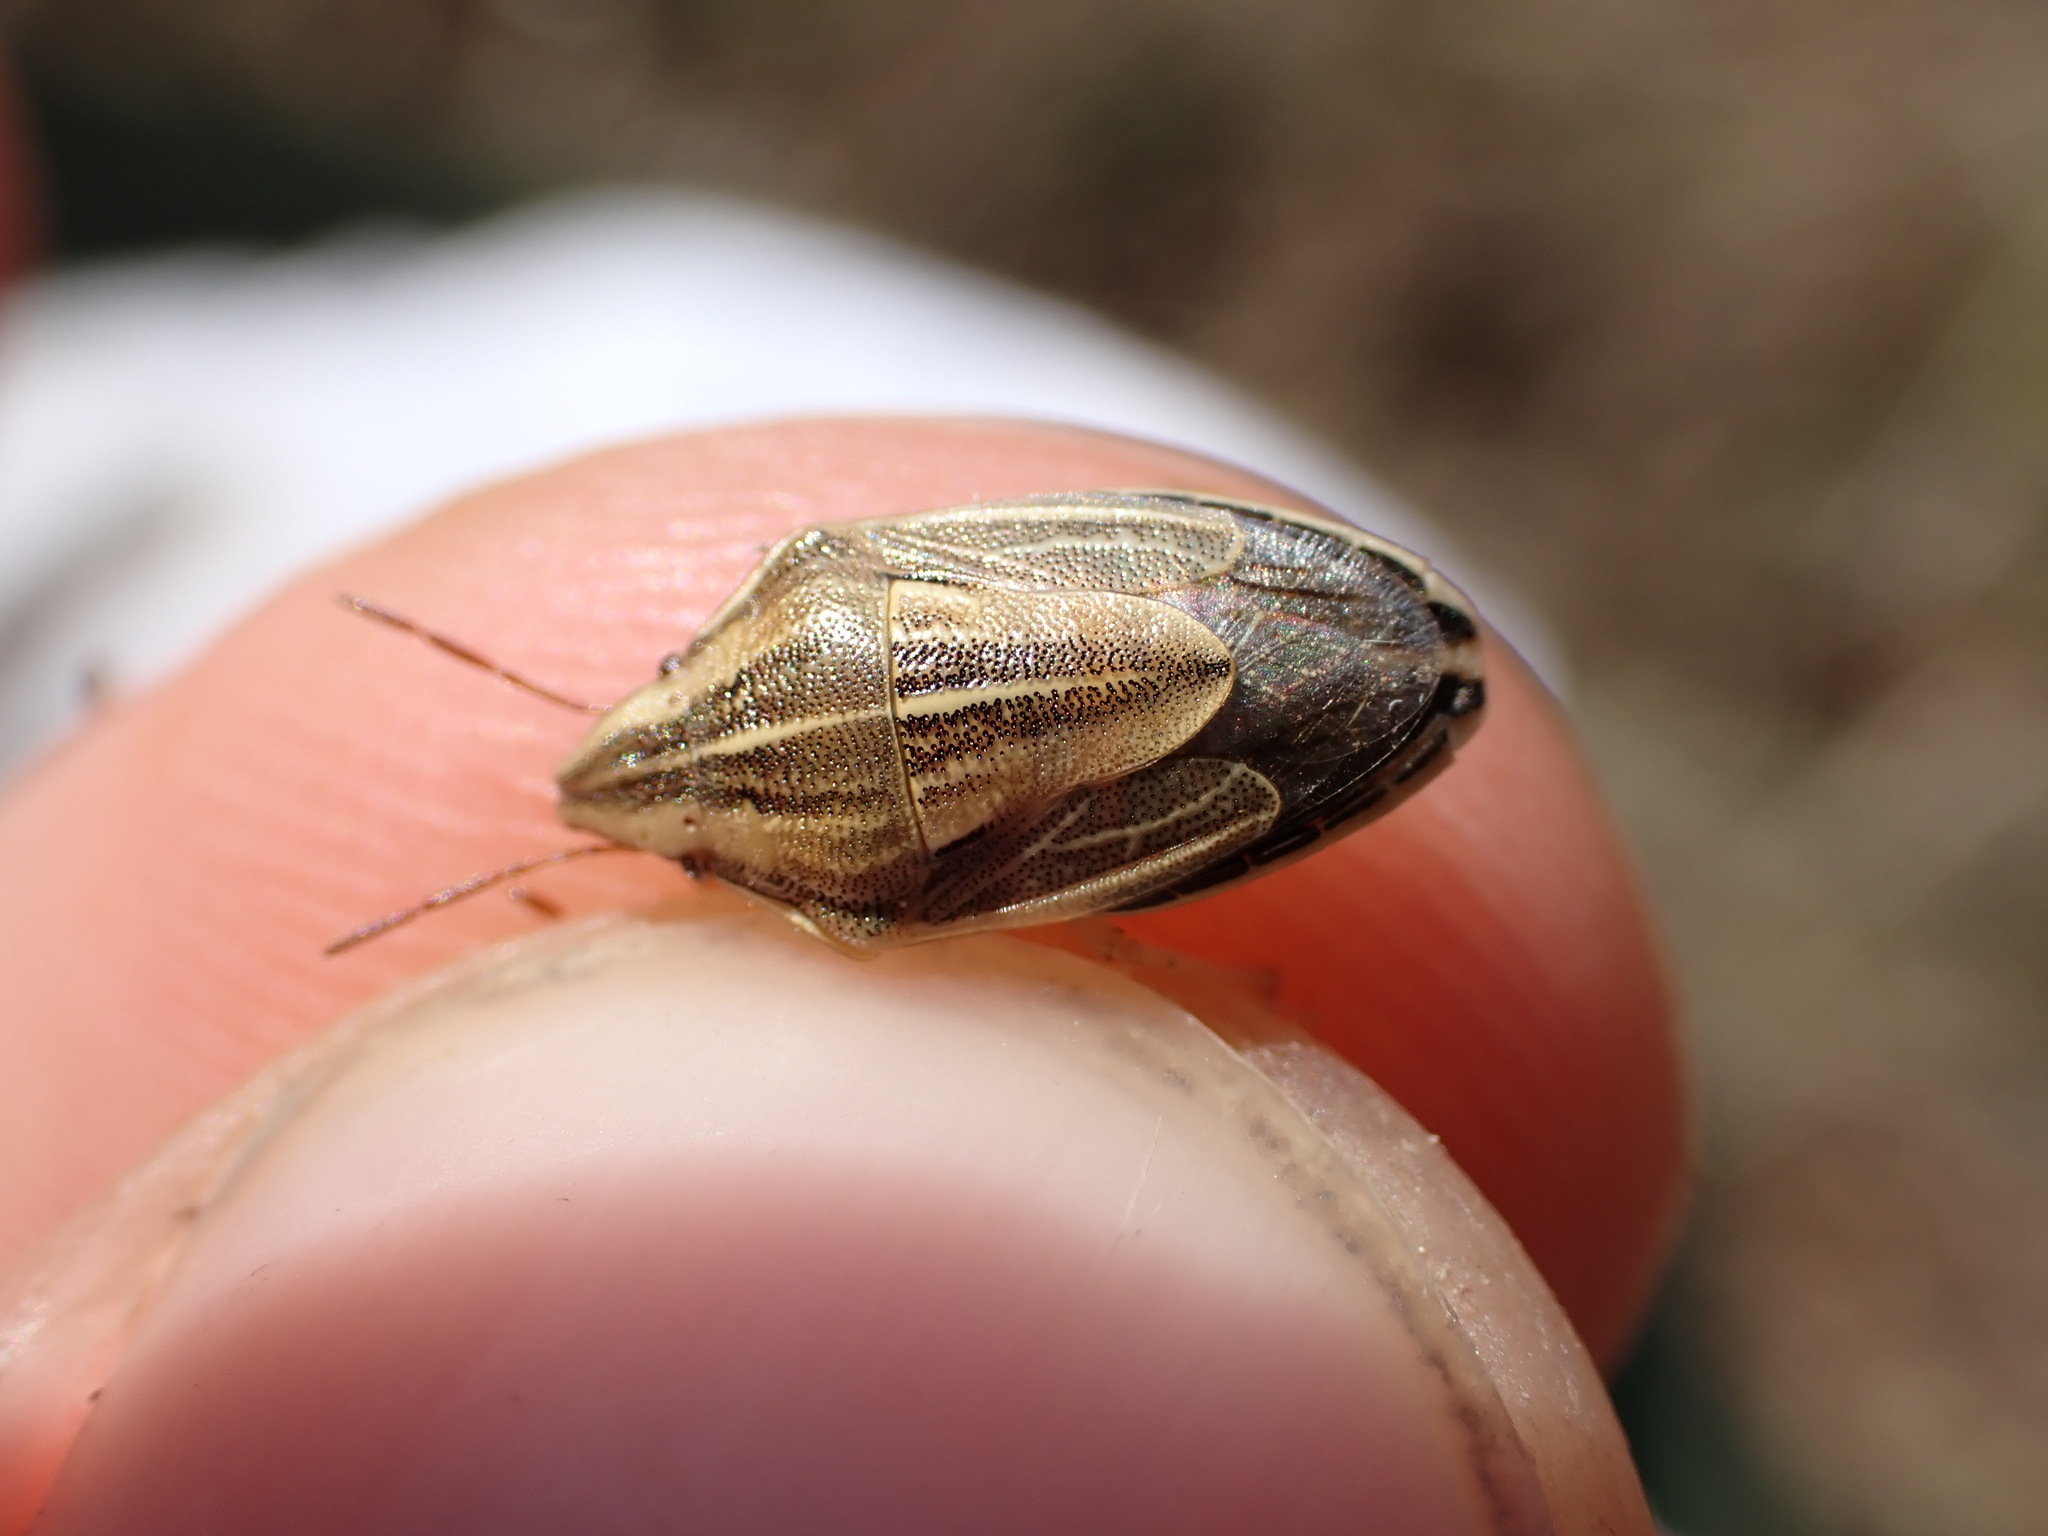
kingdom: Animalia
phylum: Arthropoda
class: Insecta
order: Hemiptera
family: Pentatomidae
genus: Aelia
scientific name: Aelia acuminata
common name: Bishop's mitre
